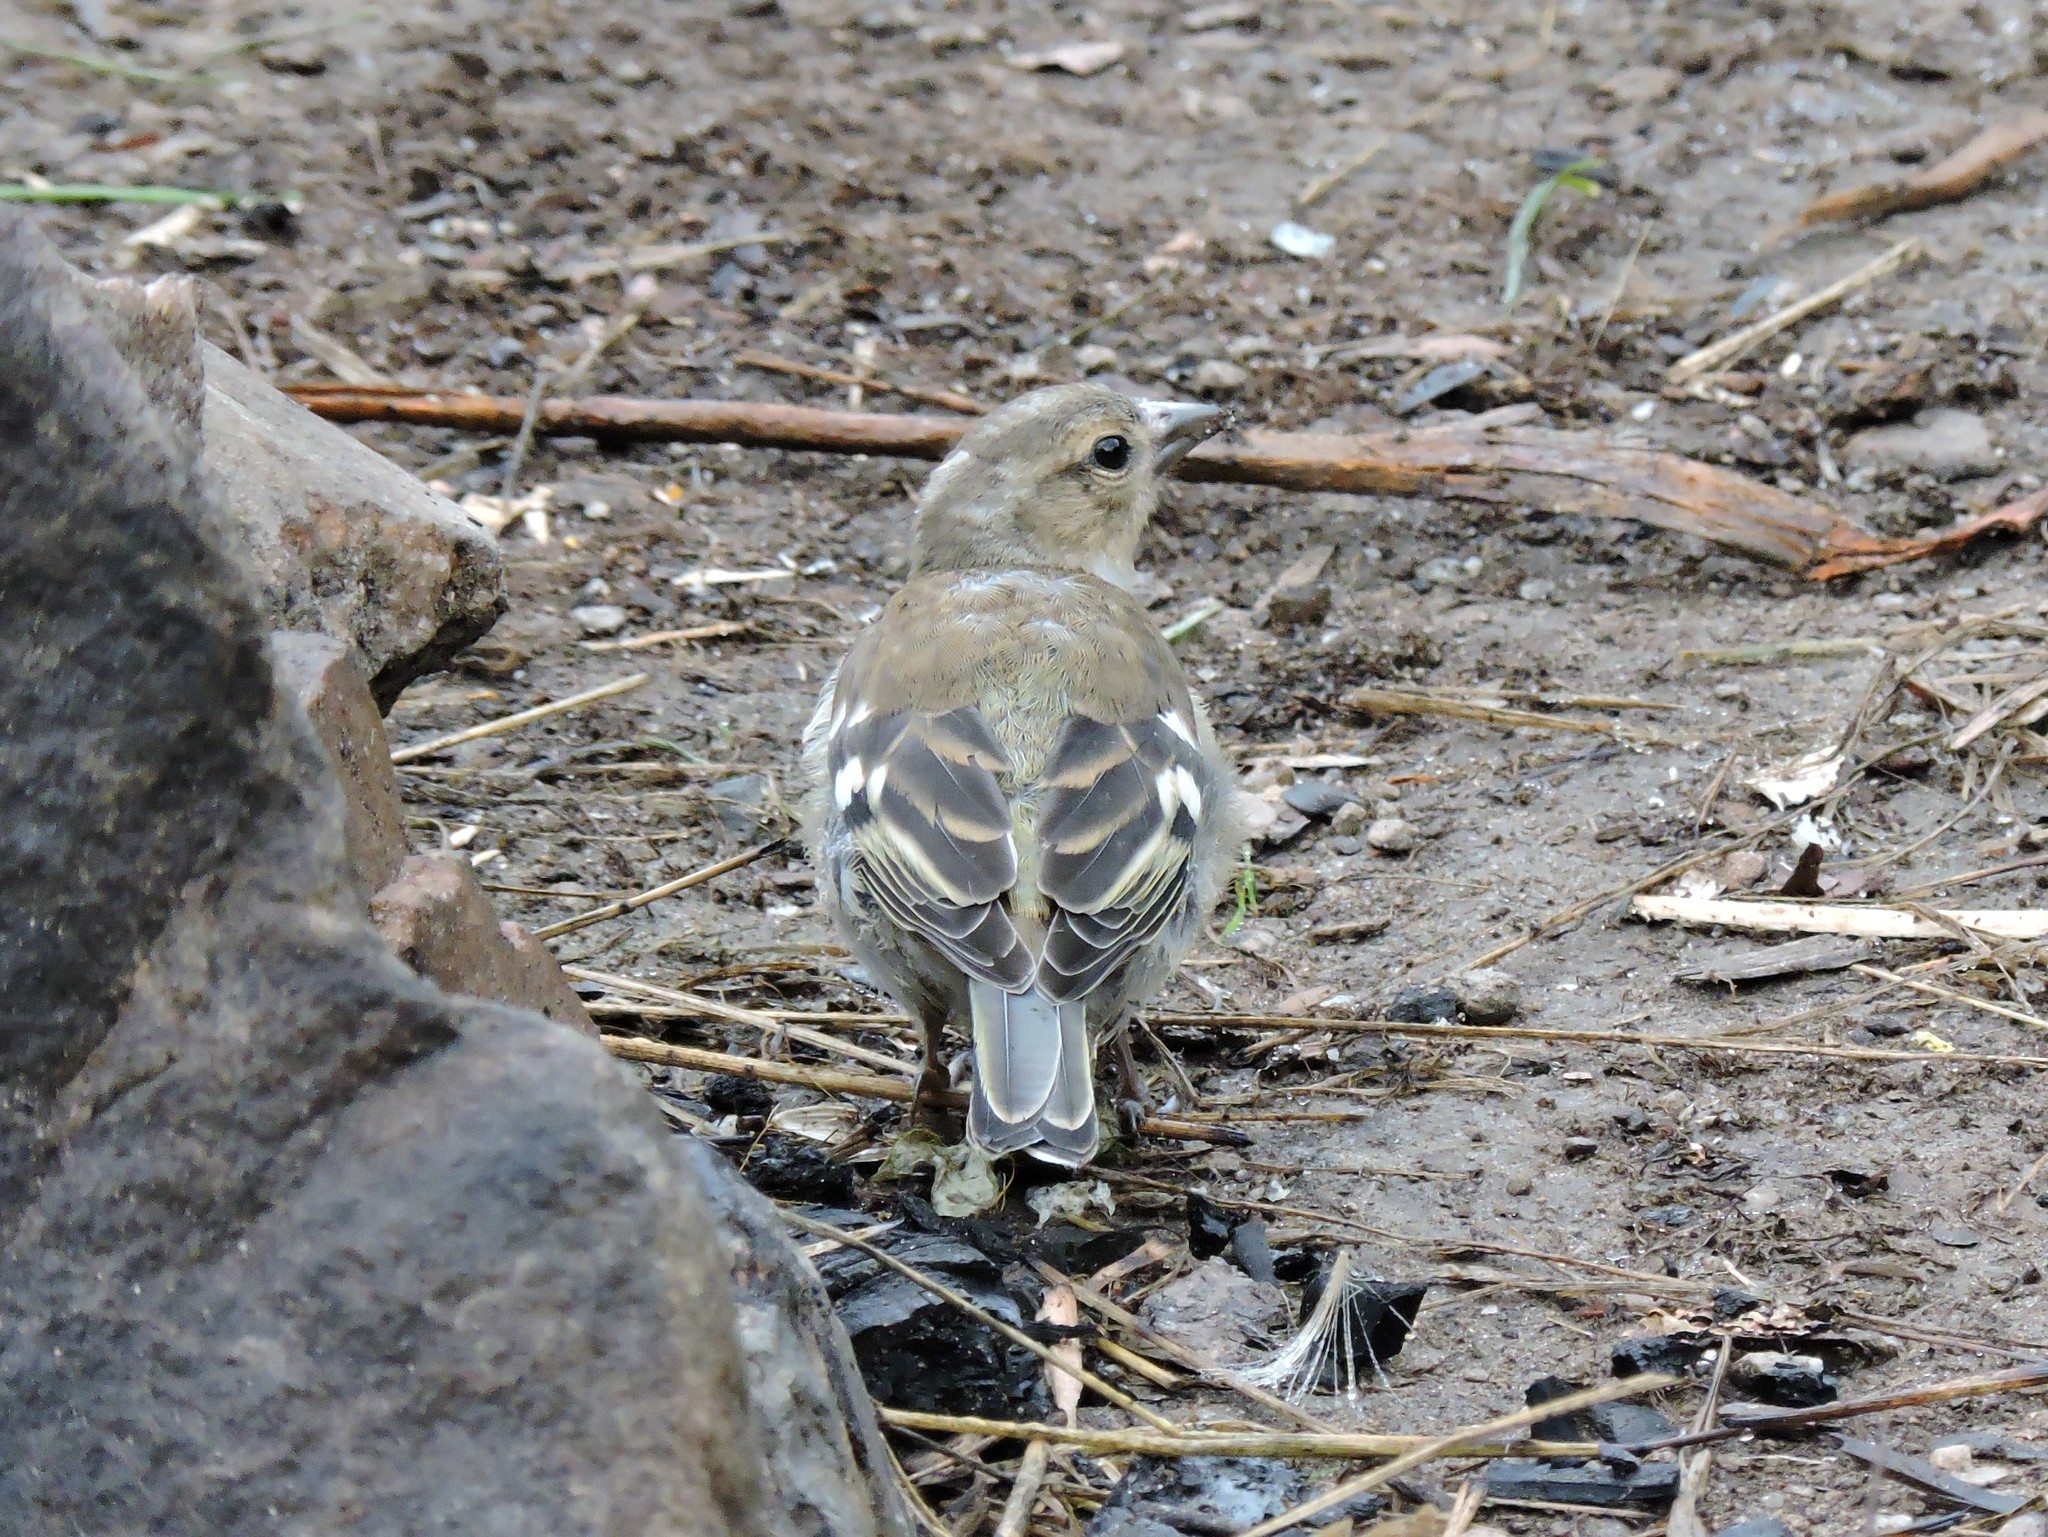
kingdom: Animalia
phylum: Chordata
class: Aves
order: Passeriformes
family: Fringillidae
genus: Fringilla
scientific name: Fringilla coelebs
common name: Common chaffinch
